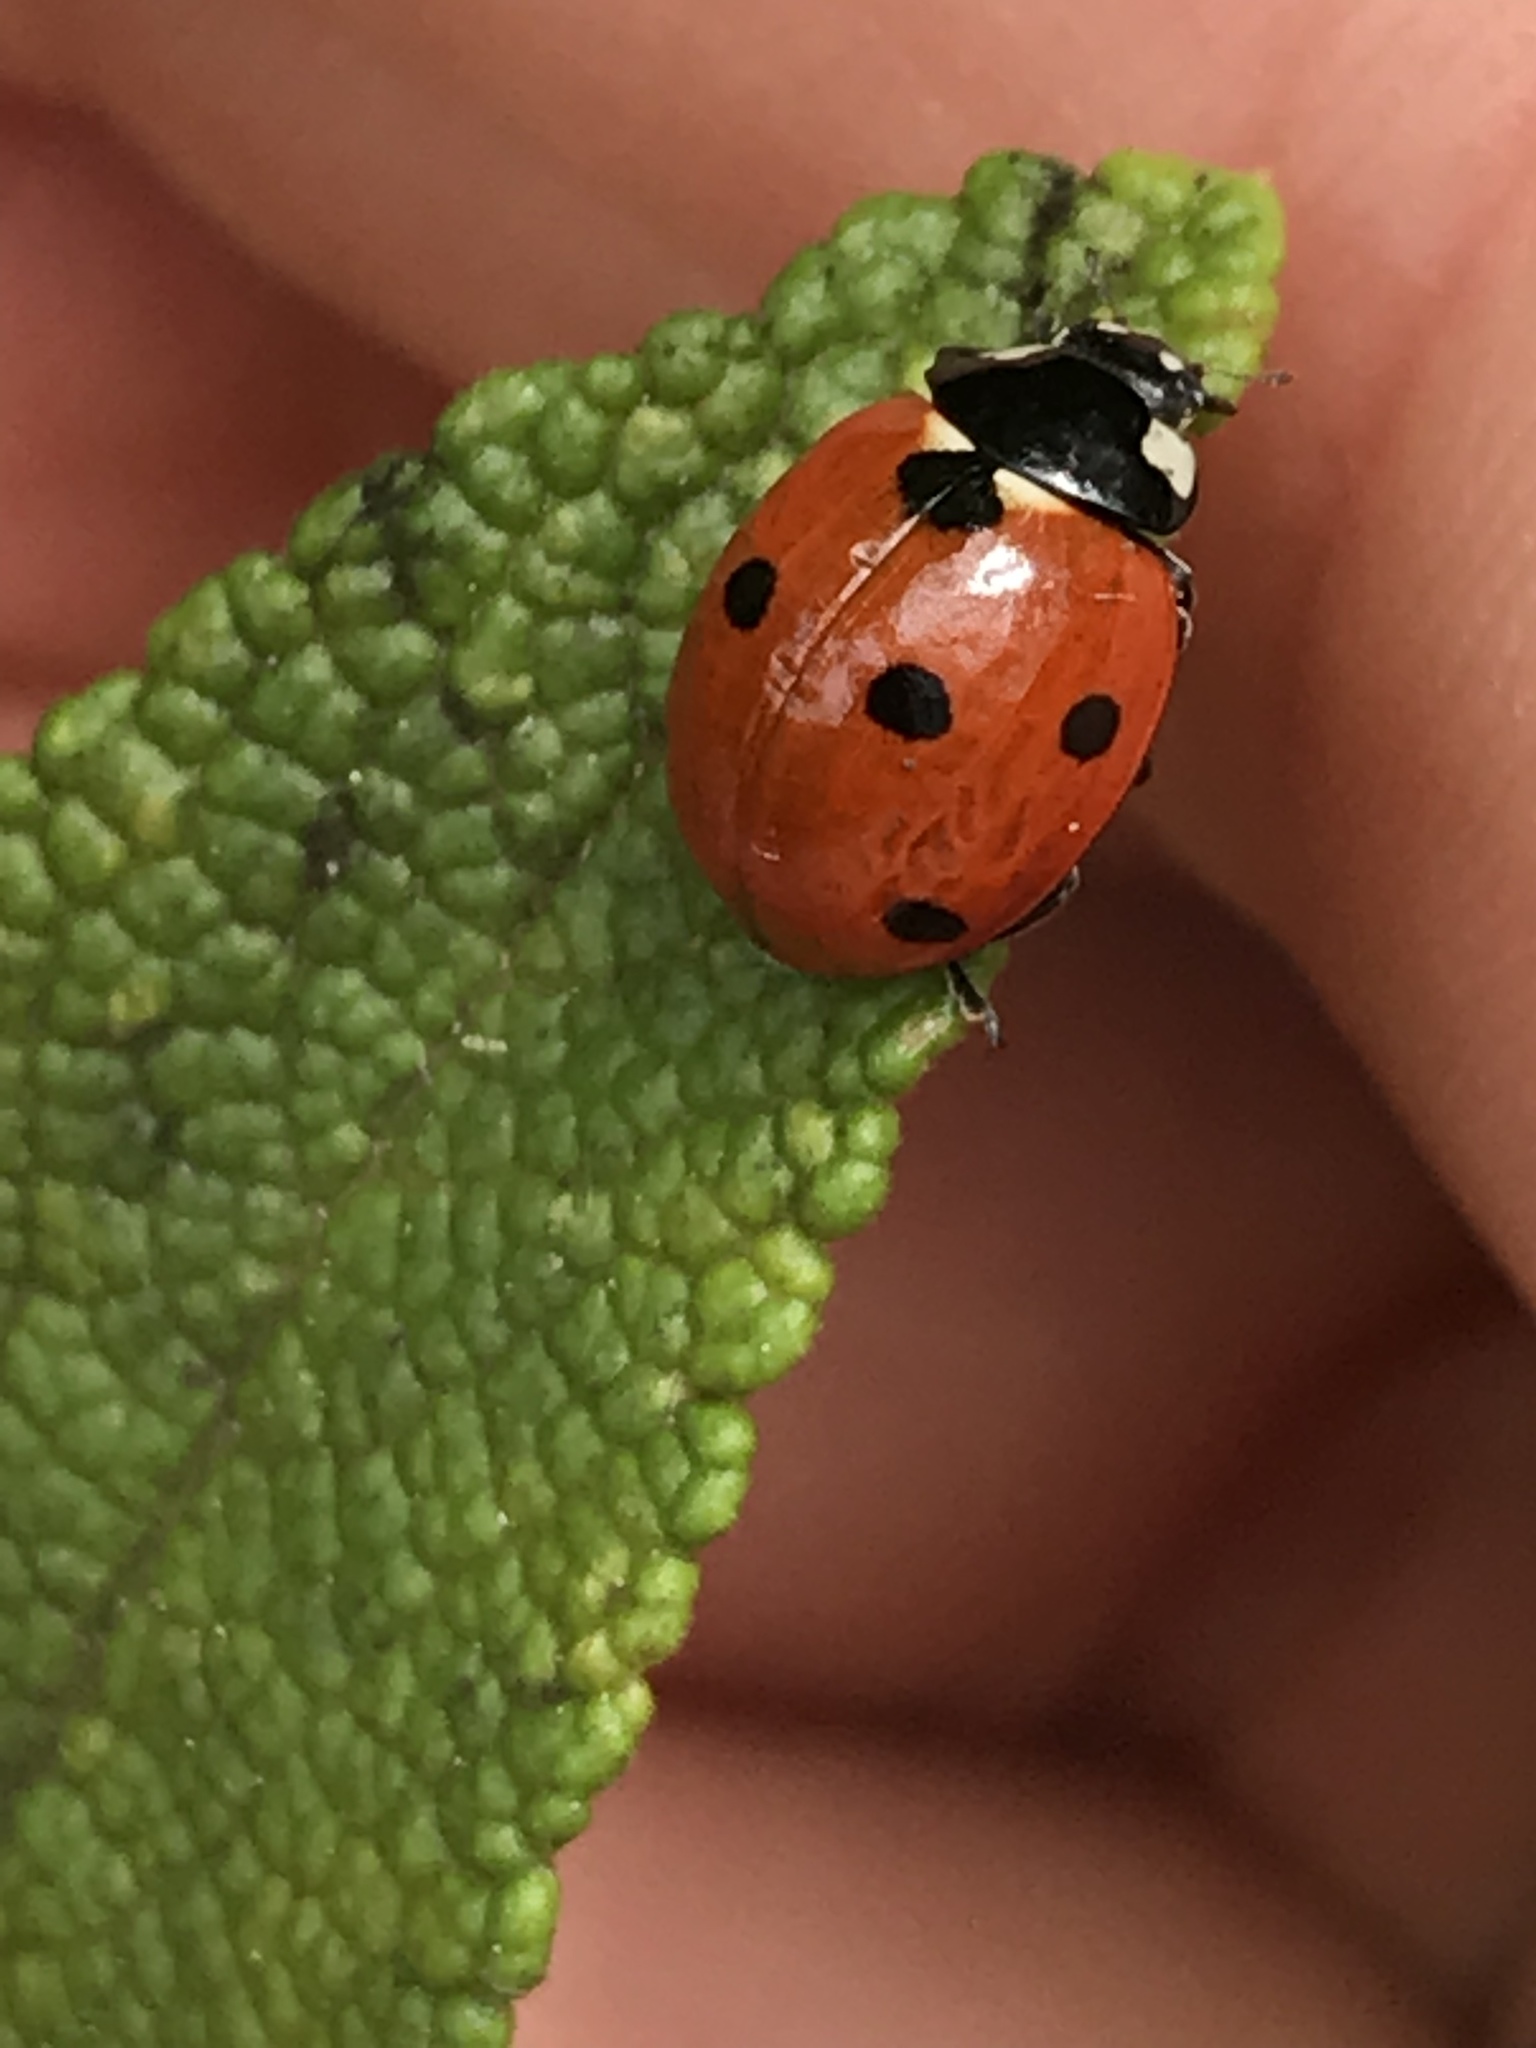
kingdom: Animalia
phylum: Arthropoda
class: Insecta
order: Coleoptera
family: Coccinellidae
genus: Coccinella
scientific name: Coccinella septempunctata
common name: Sevenspotted lady beetle
